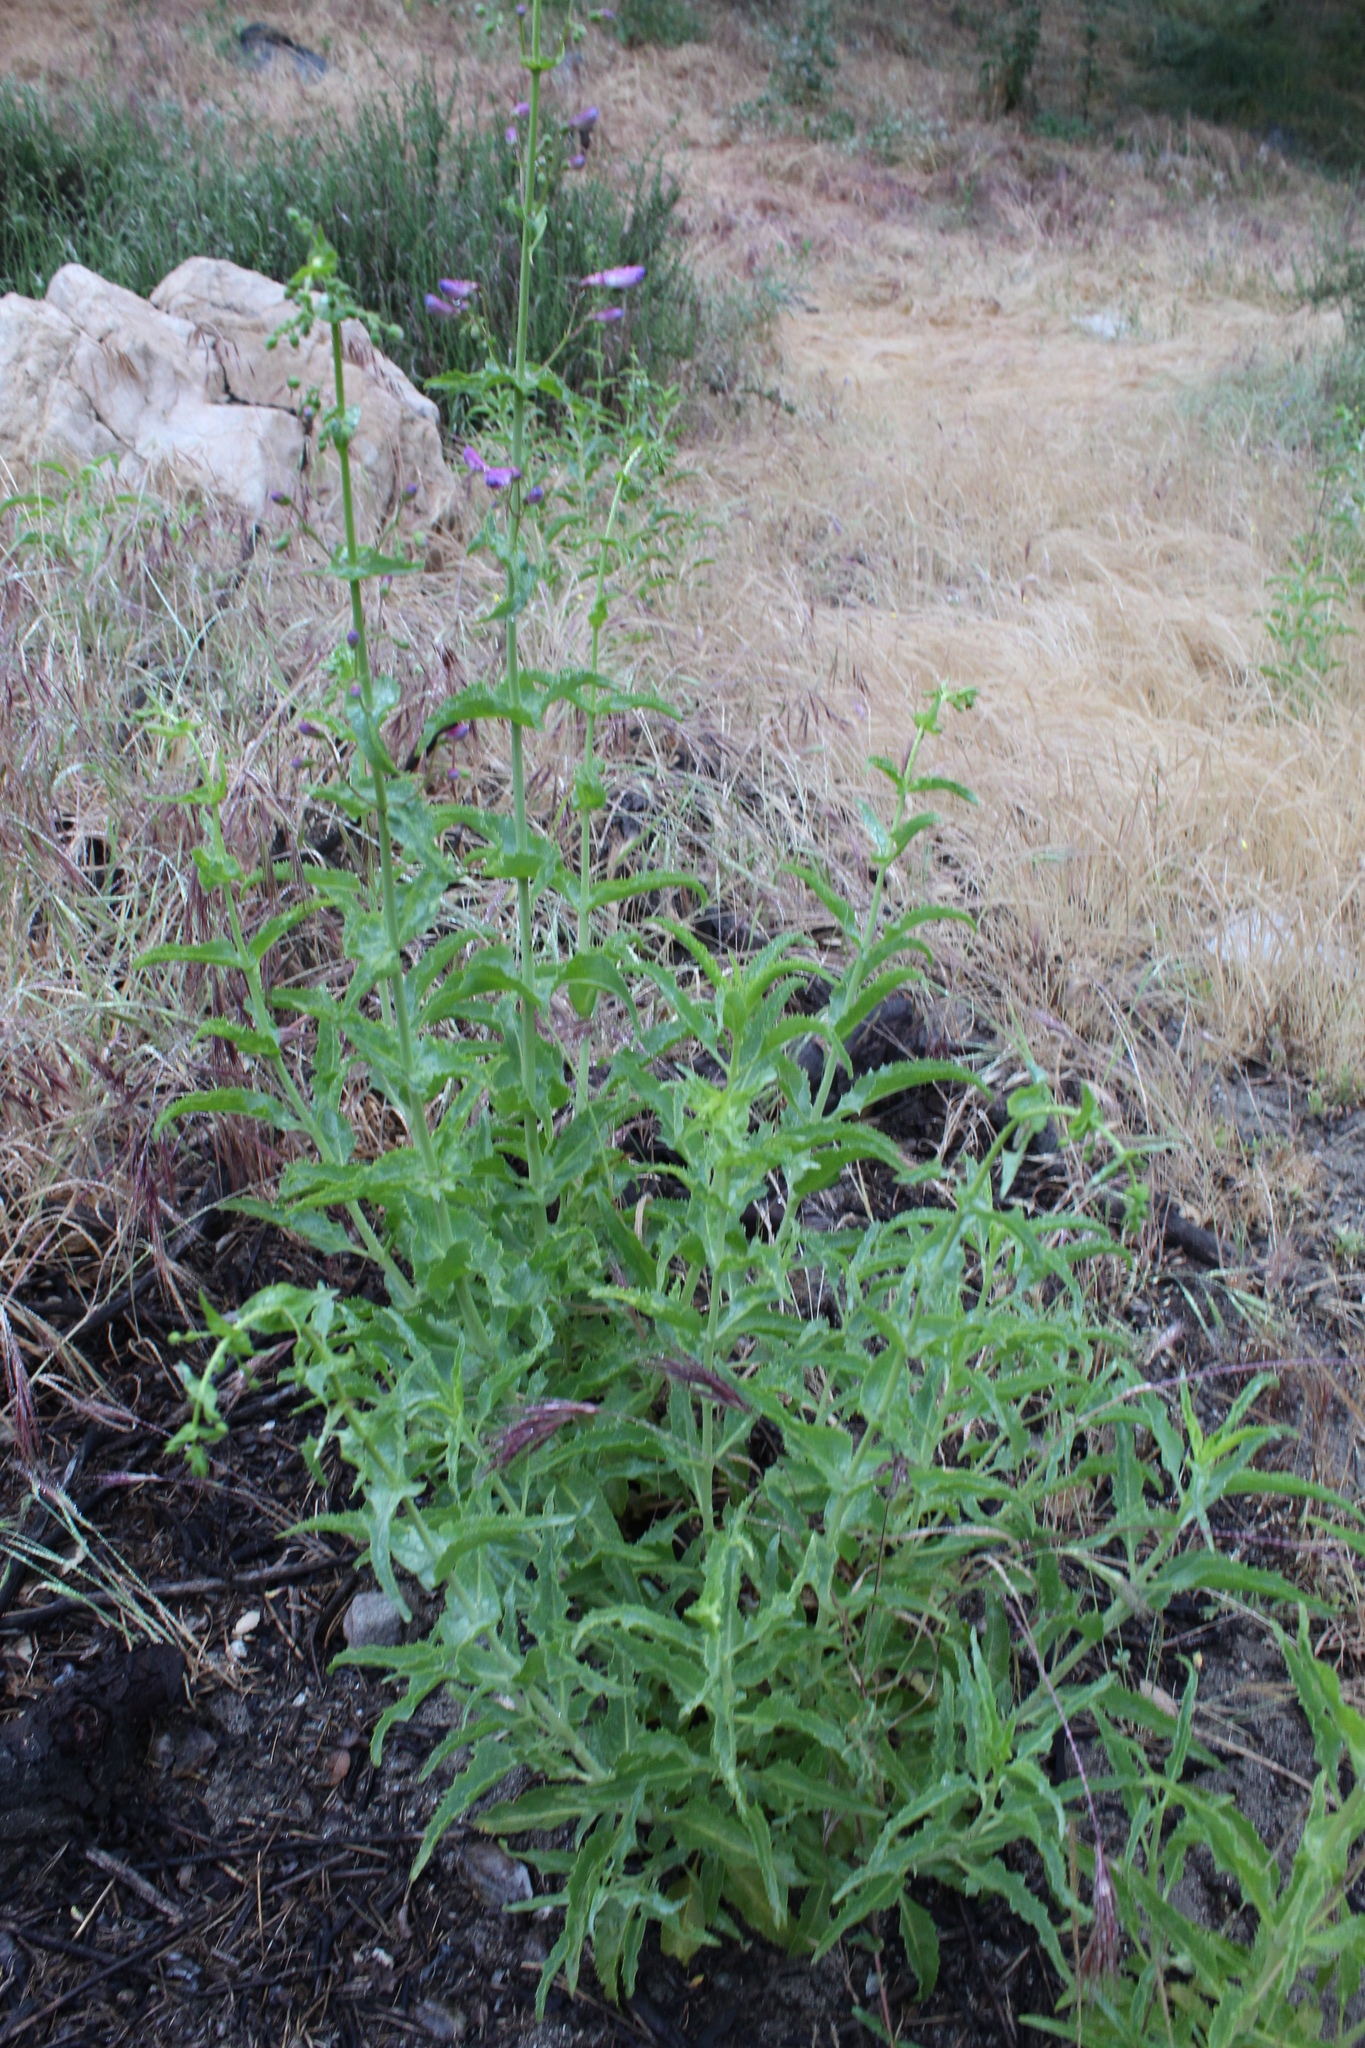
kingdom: Plantae
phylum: Tracheophyta
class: Magnoliopsida
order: Lamiales
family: Plantaginaceae
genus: Penstemon
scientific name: Penstemon spectabilis
